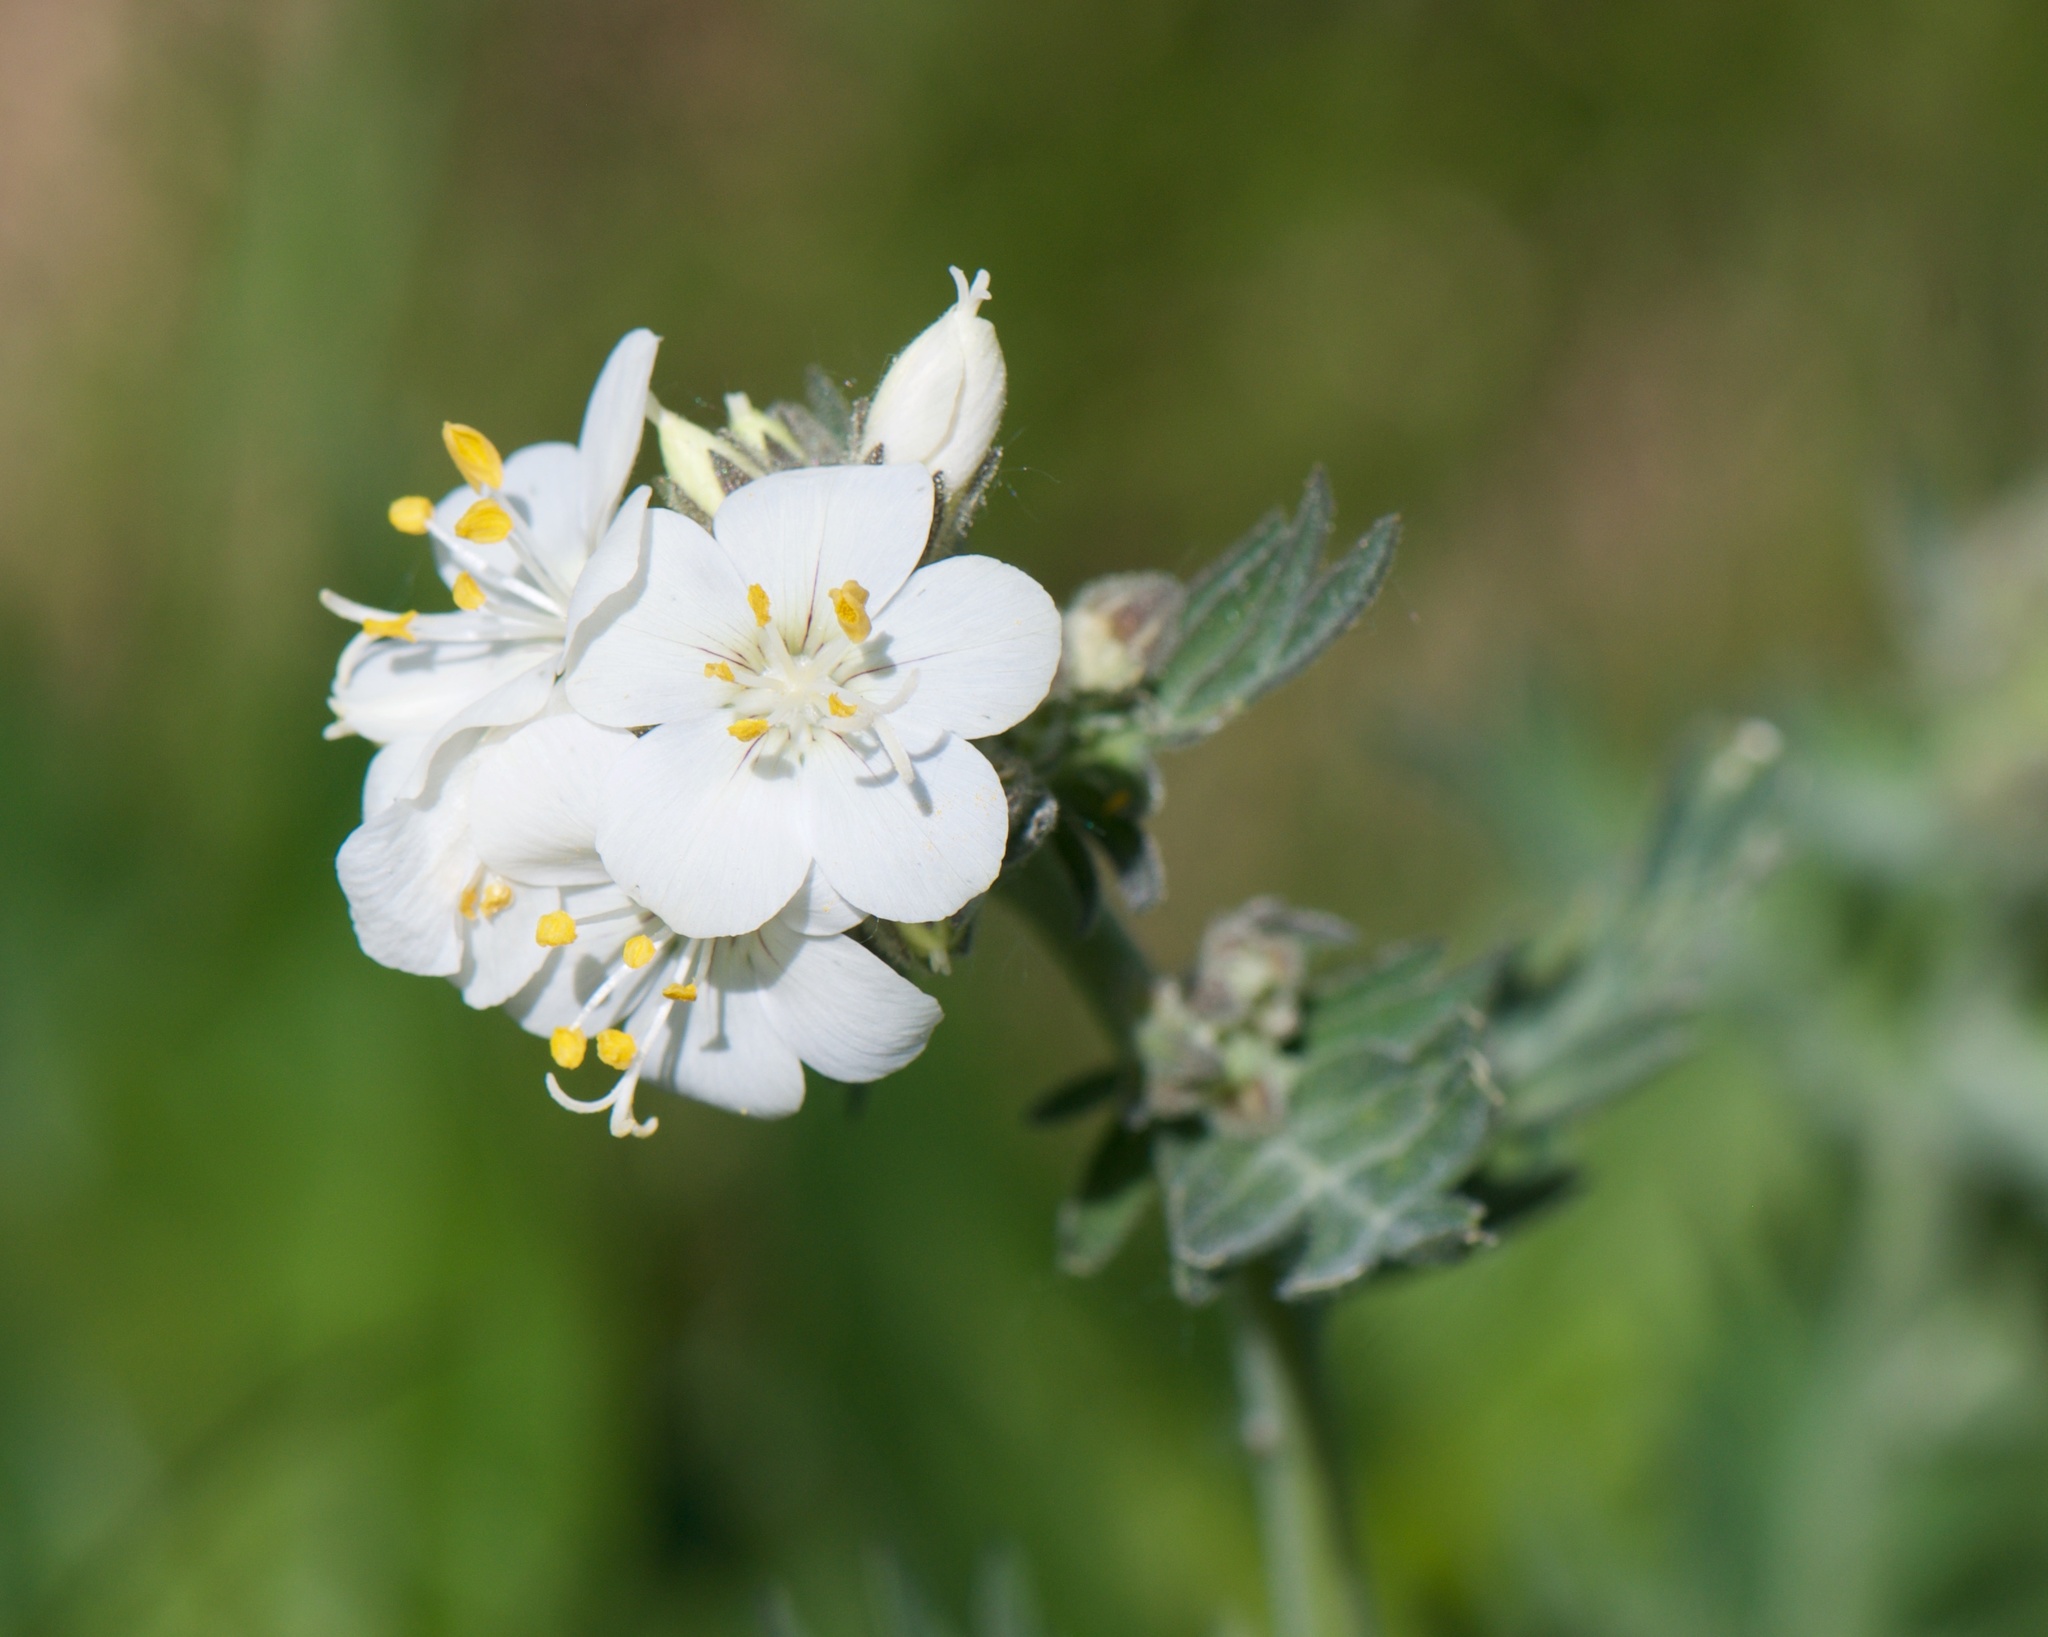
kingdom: Plantae
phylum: Tracheophyta
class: Magnoliopsida
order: Ericales
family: Polemoniaceae
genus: Polemonium
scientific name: Polemonium foliosissimum
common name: Leafy jacob's-ladder
